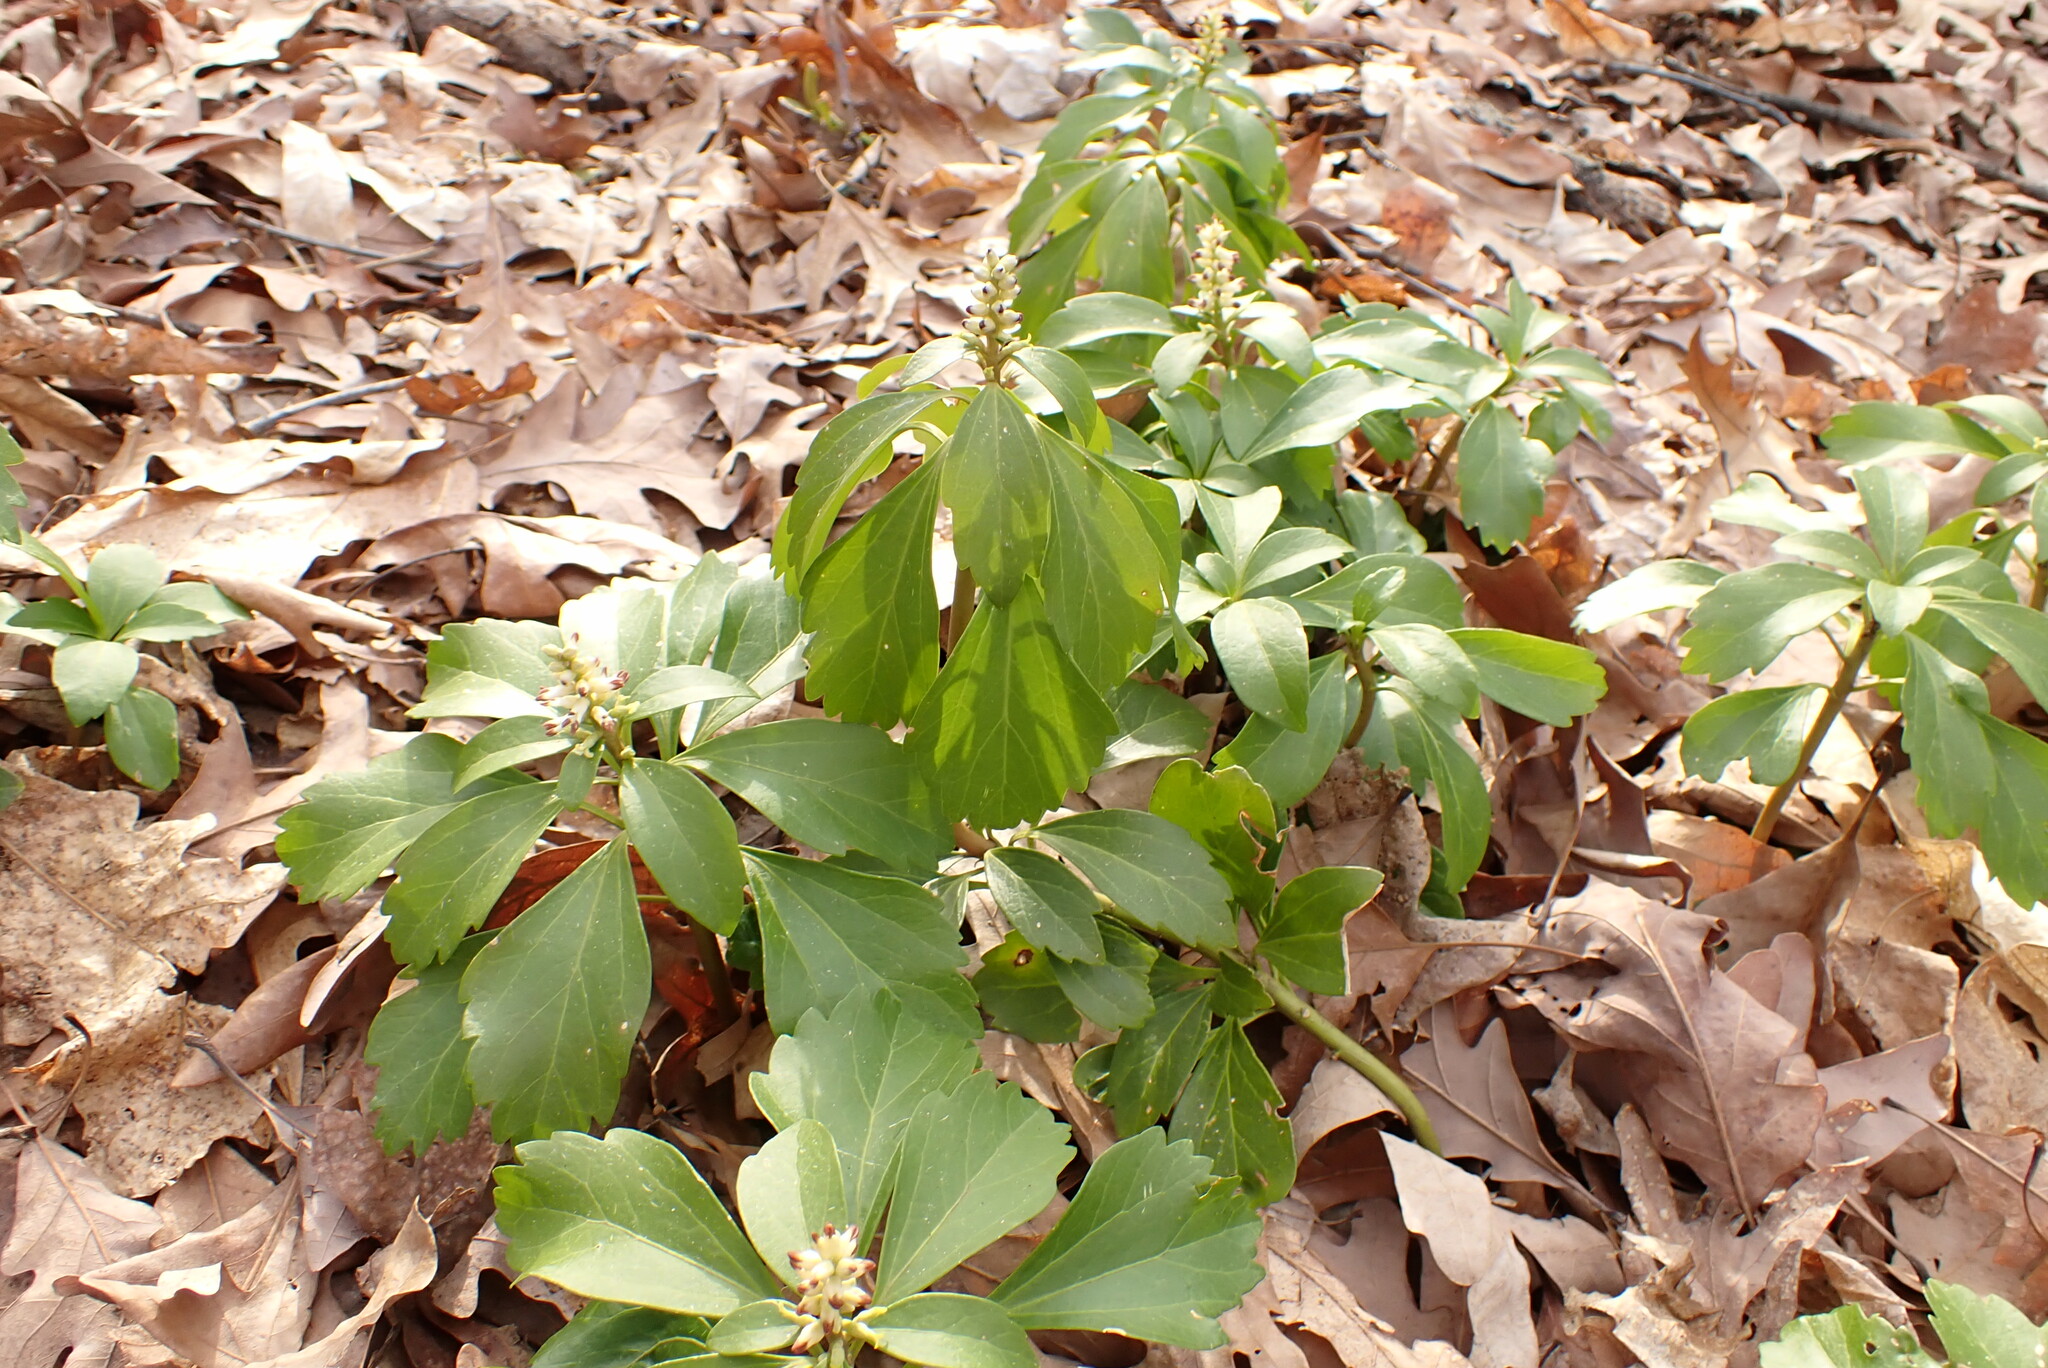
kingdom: Plantae
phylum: Tracheophyta
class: Magnoliopsida
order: Buxales
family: Buxaceae
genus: Pachysandra
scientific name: Pachysandra terminalis
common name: Japanese pachysandra
